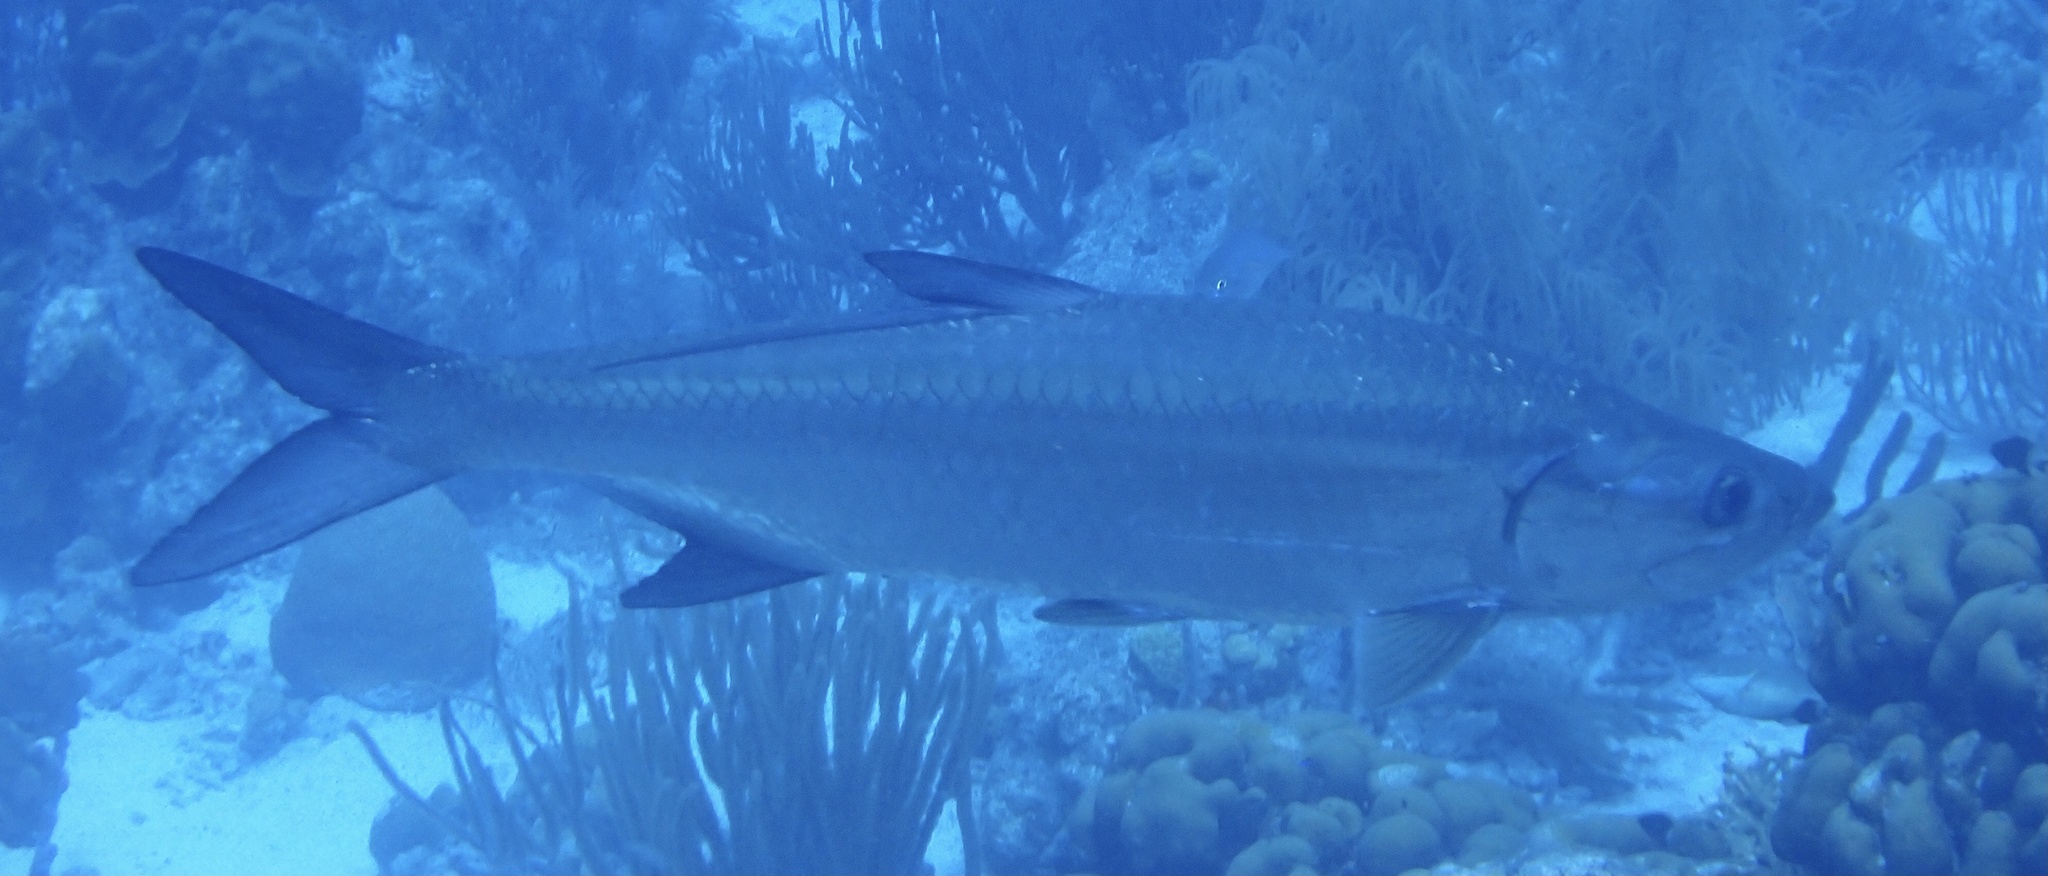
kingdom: Animalia
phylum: Chordata
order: Elopiformes
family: Megalopidae
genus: Megalops
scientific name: Megalops atlanticus
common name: Tarpon
